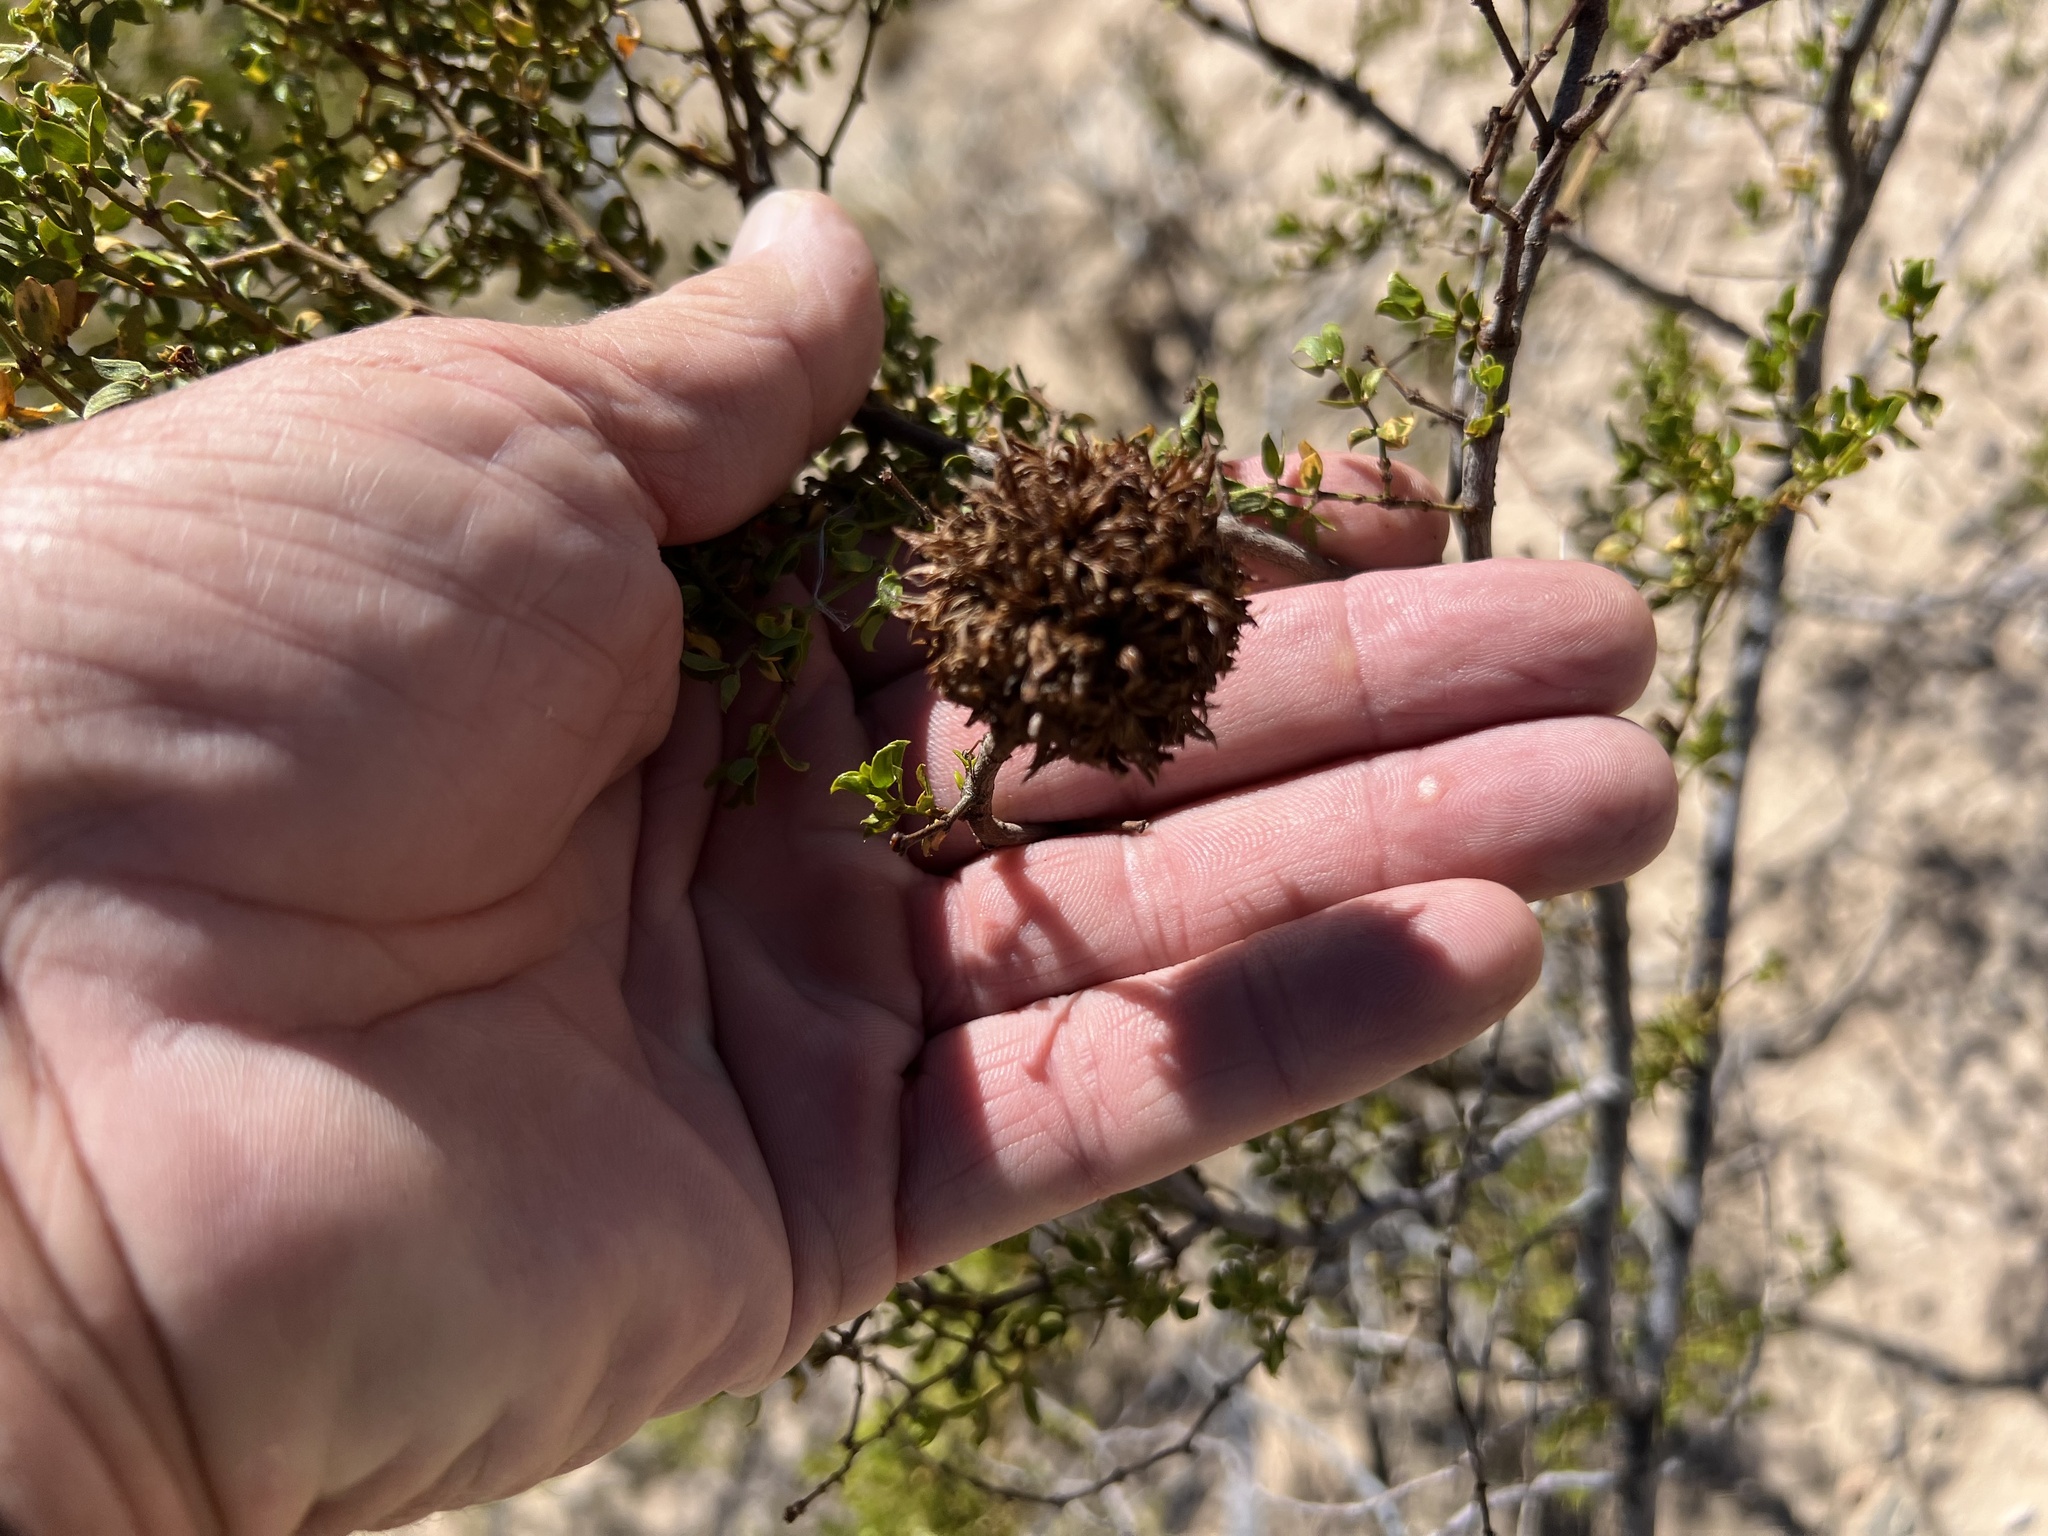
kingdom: Animalia
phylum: Arthropoda
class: Insecta
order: Diptera
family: Cecidomyiidae
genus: Asphondylia
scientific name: Asphondylia auripila
